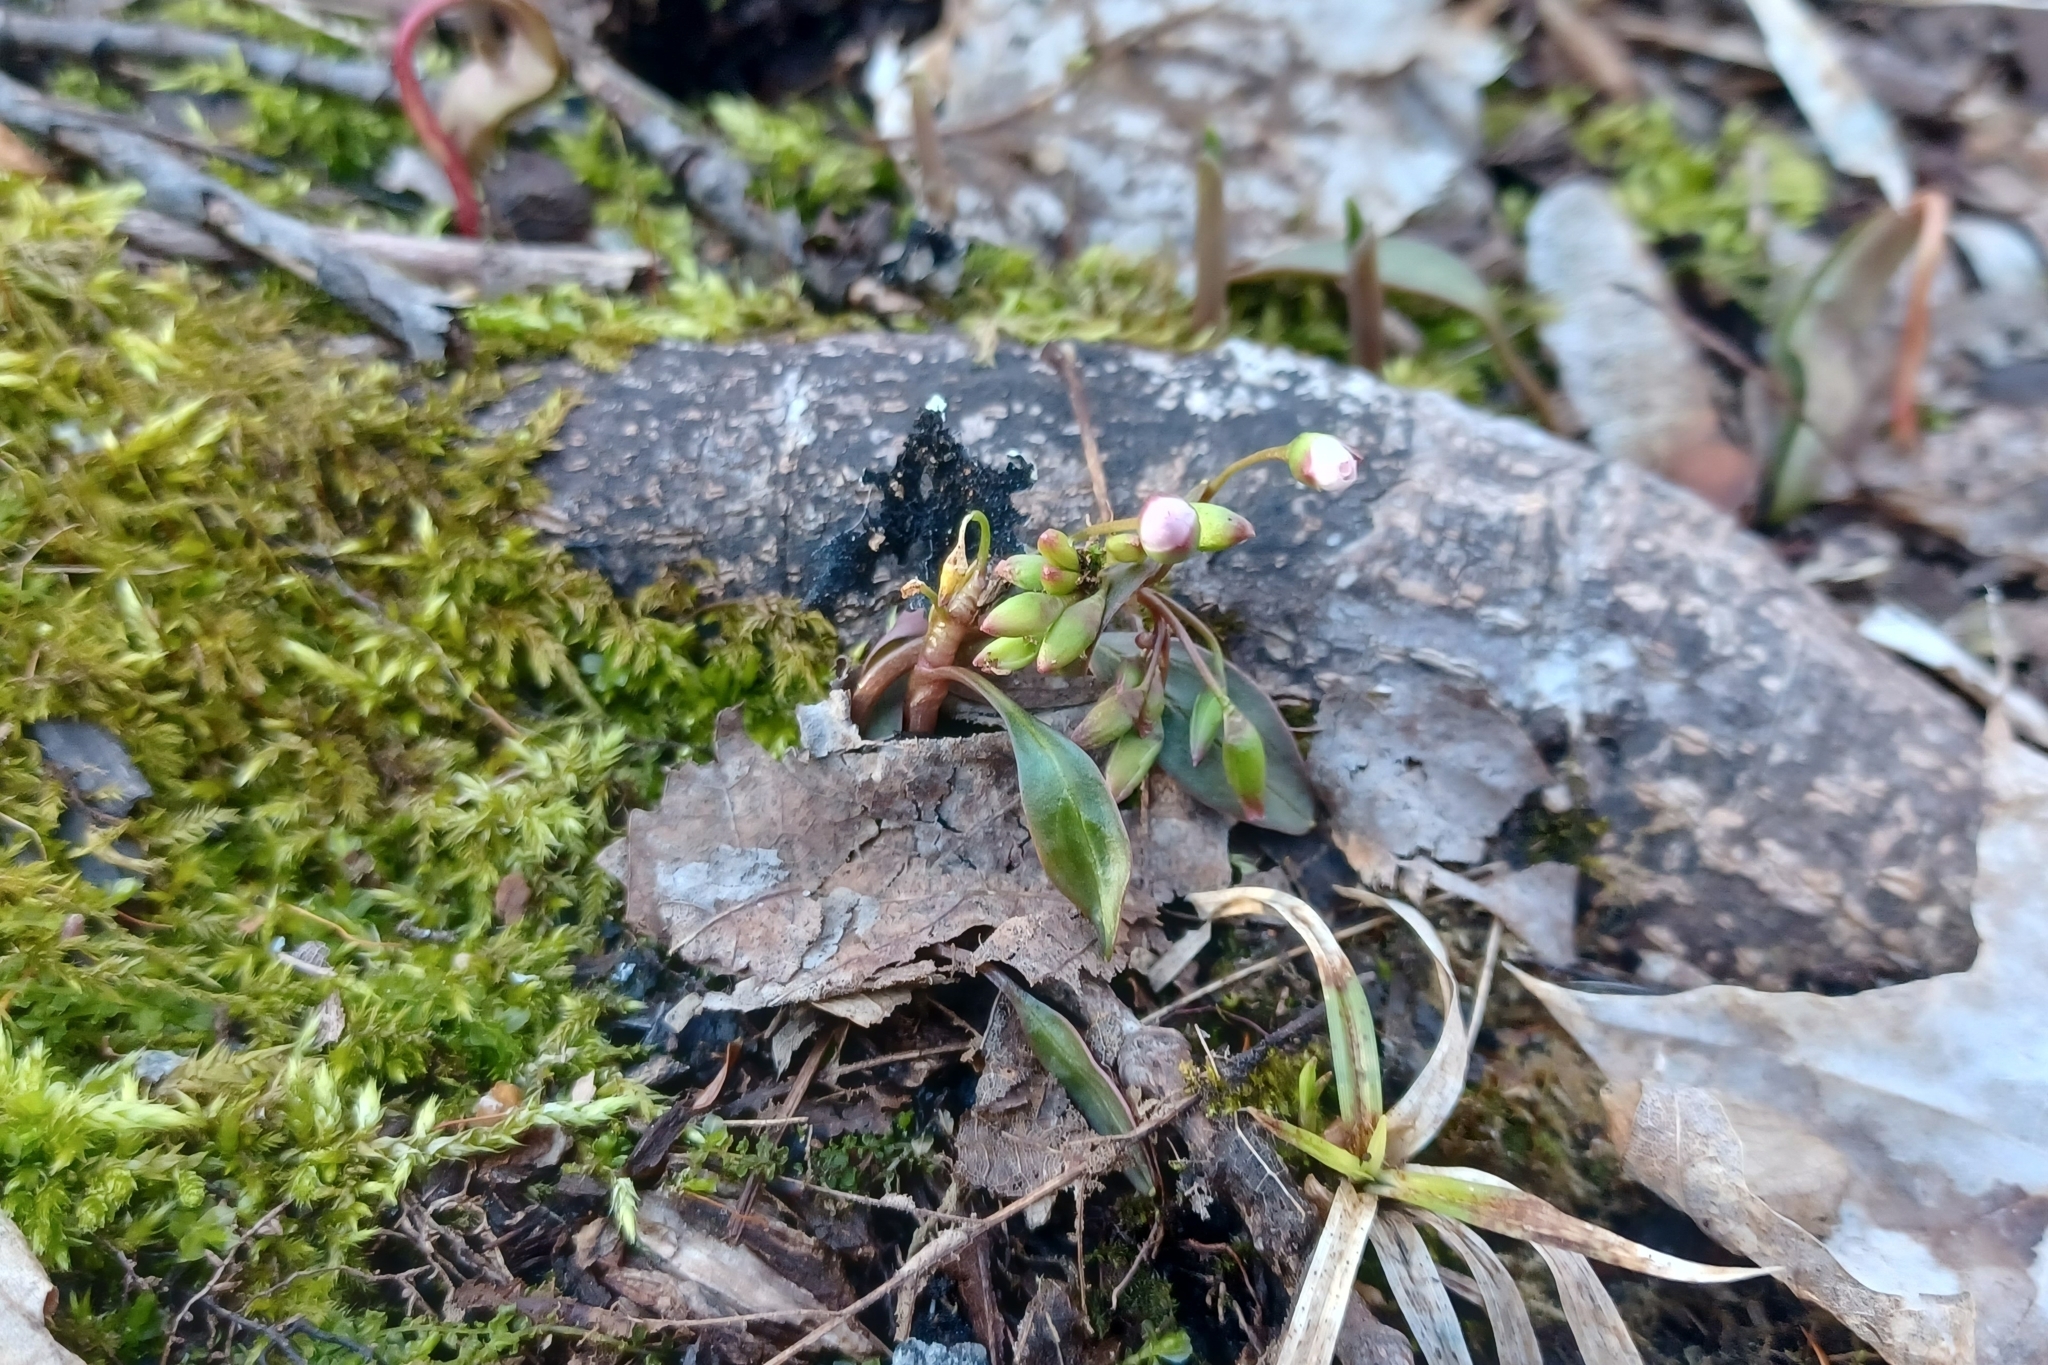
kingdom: Plantae
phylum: Tracheophyta
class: Magnoliopsida
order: Caryophyllales
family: Montiaceae
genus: Claytonia
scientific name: Claytonia caroliniana
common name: Carolina spring beauty
